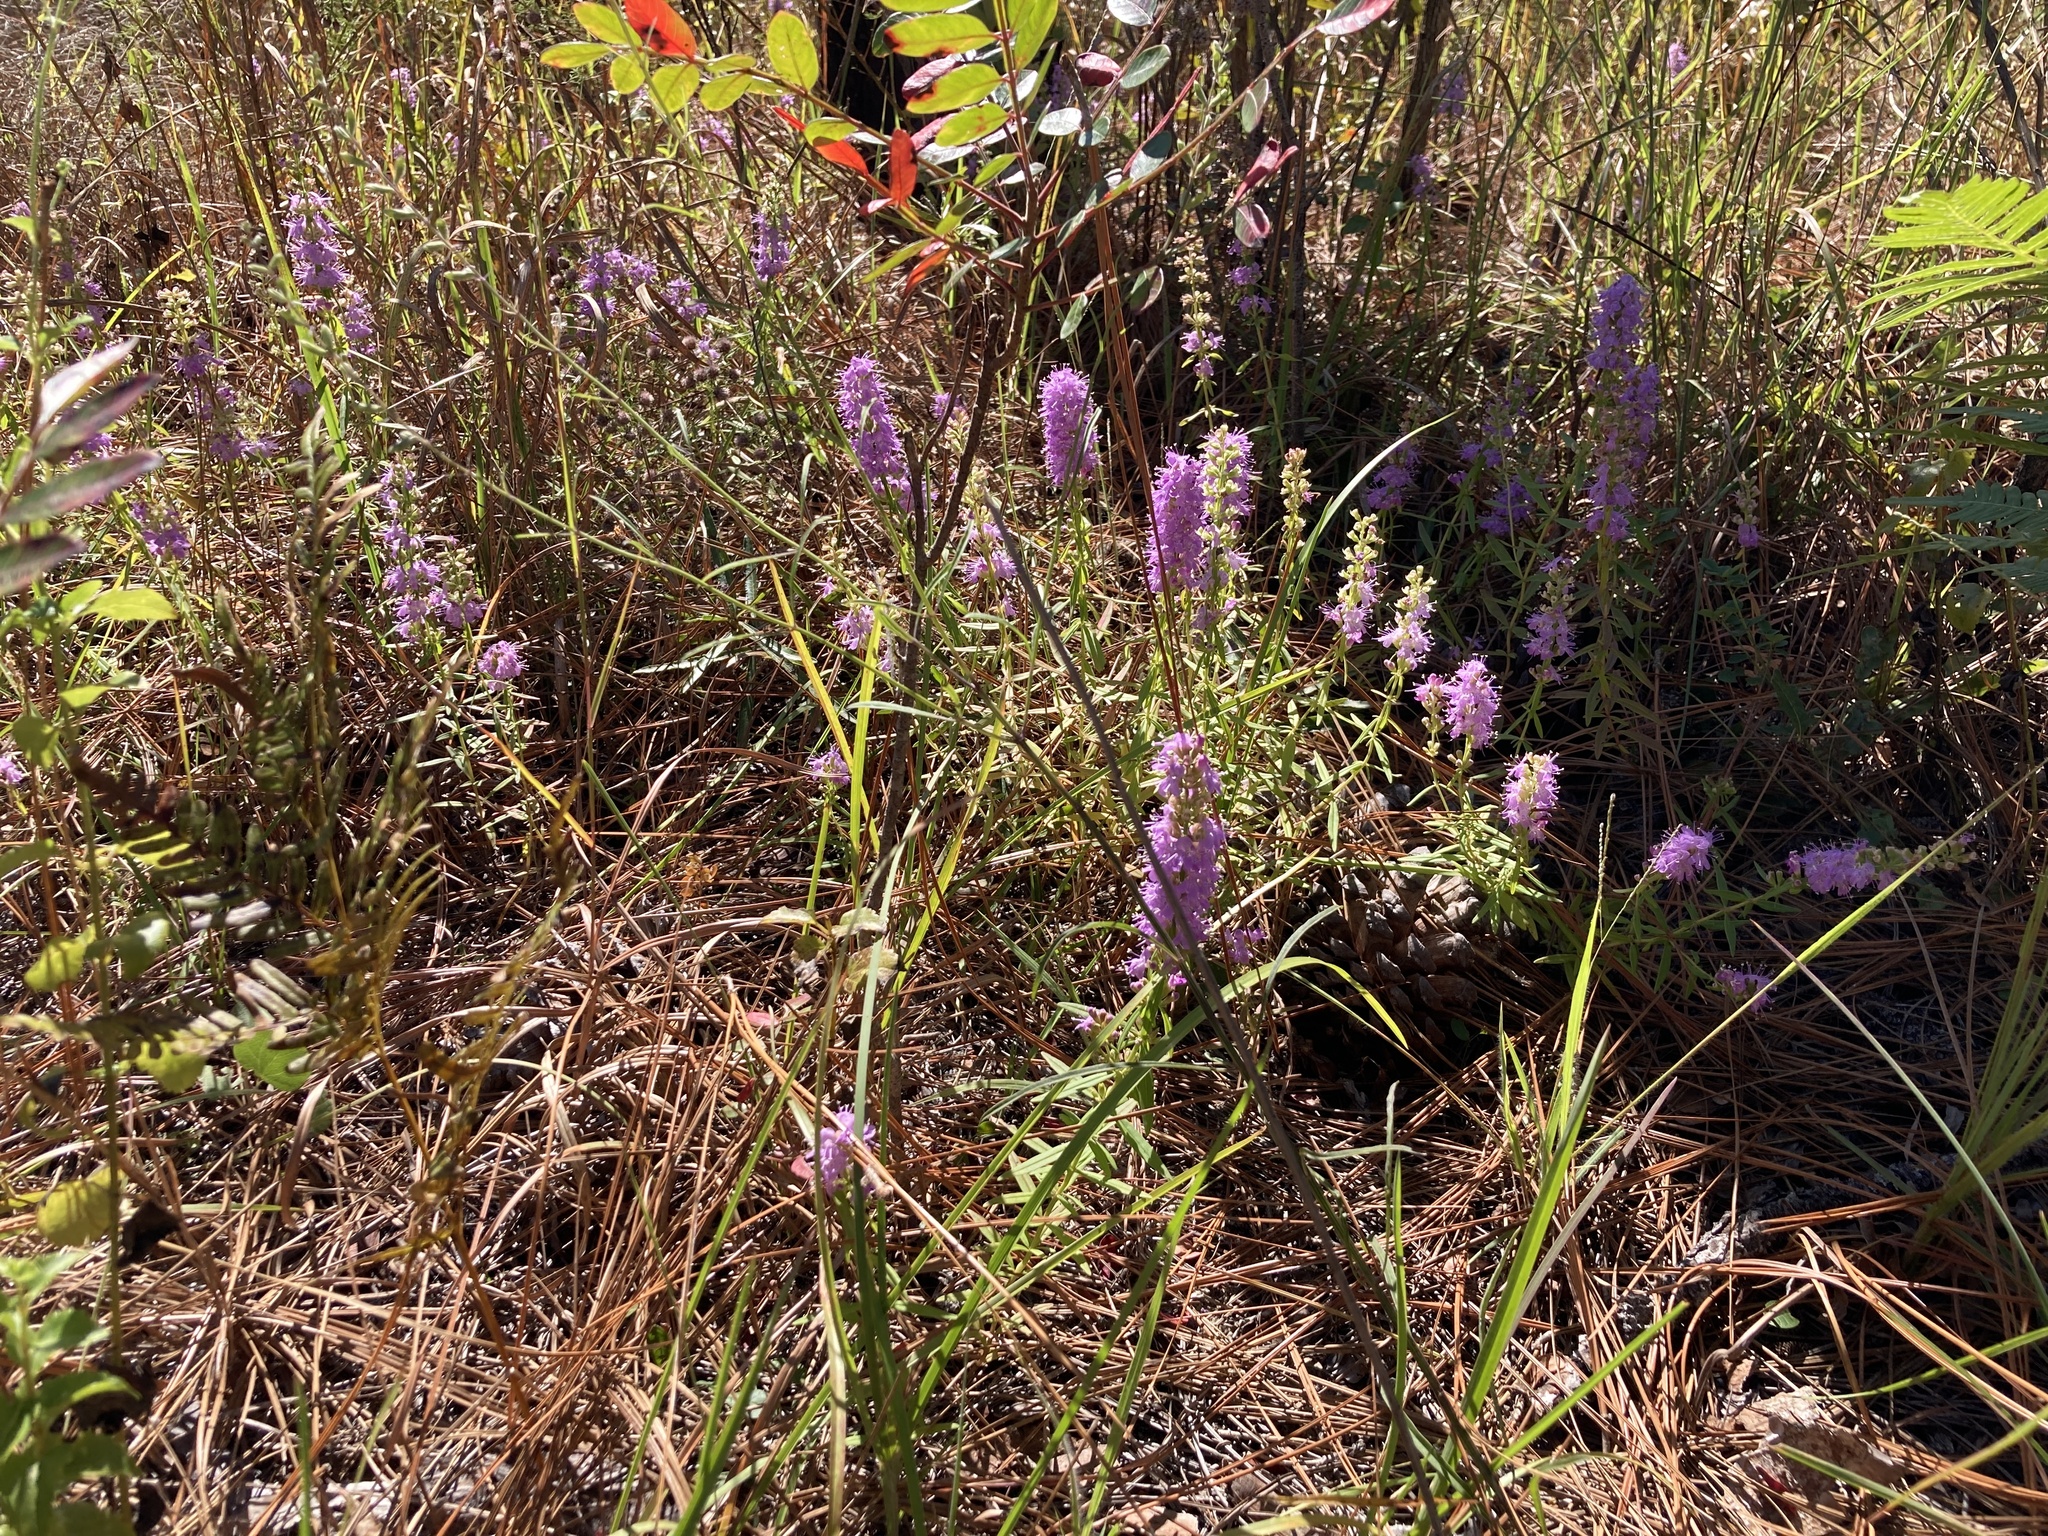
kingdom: Plantae
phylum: Tracheophyta
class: Magnoliopsida
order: Lamiales
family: Lamiaceae
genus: Dicerandra
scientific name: Dicerandra densiflora
